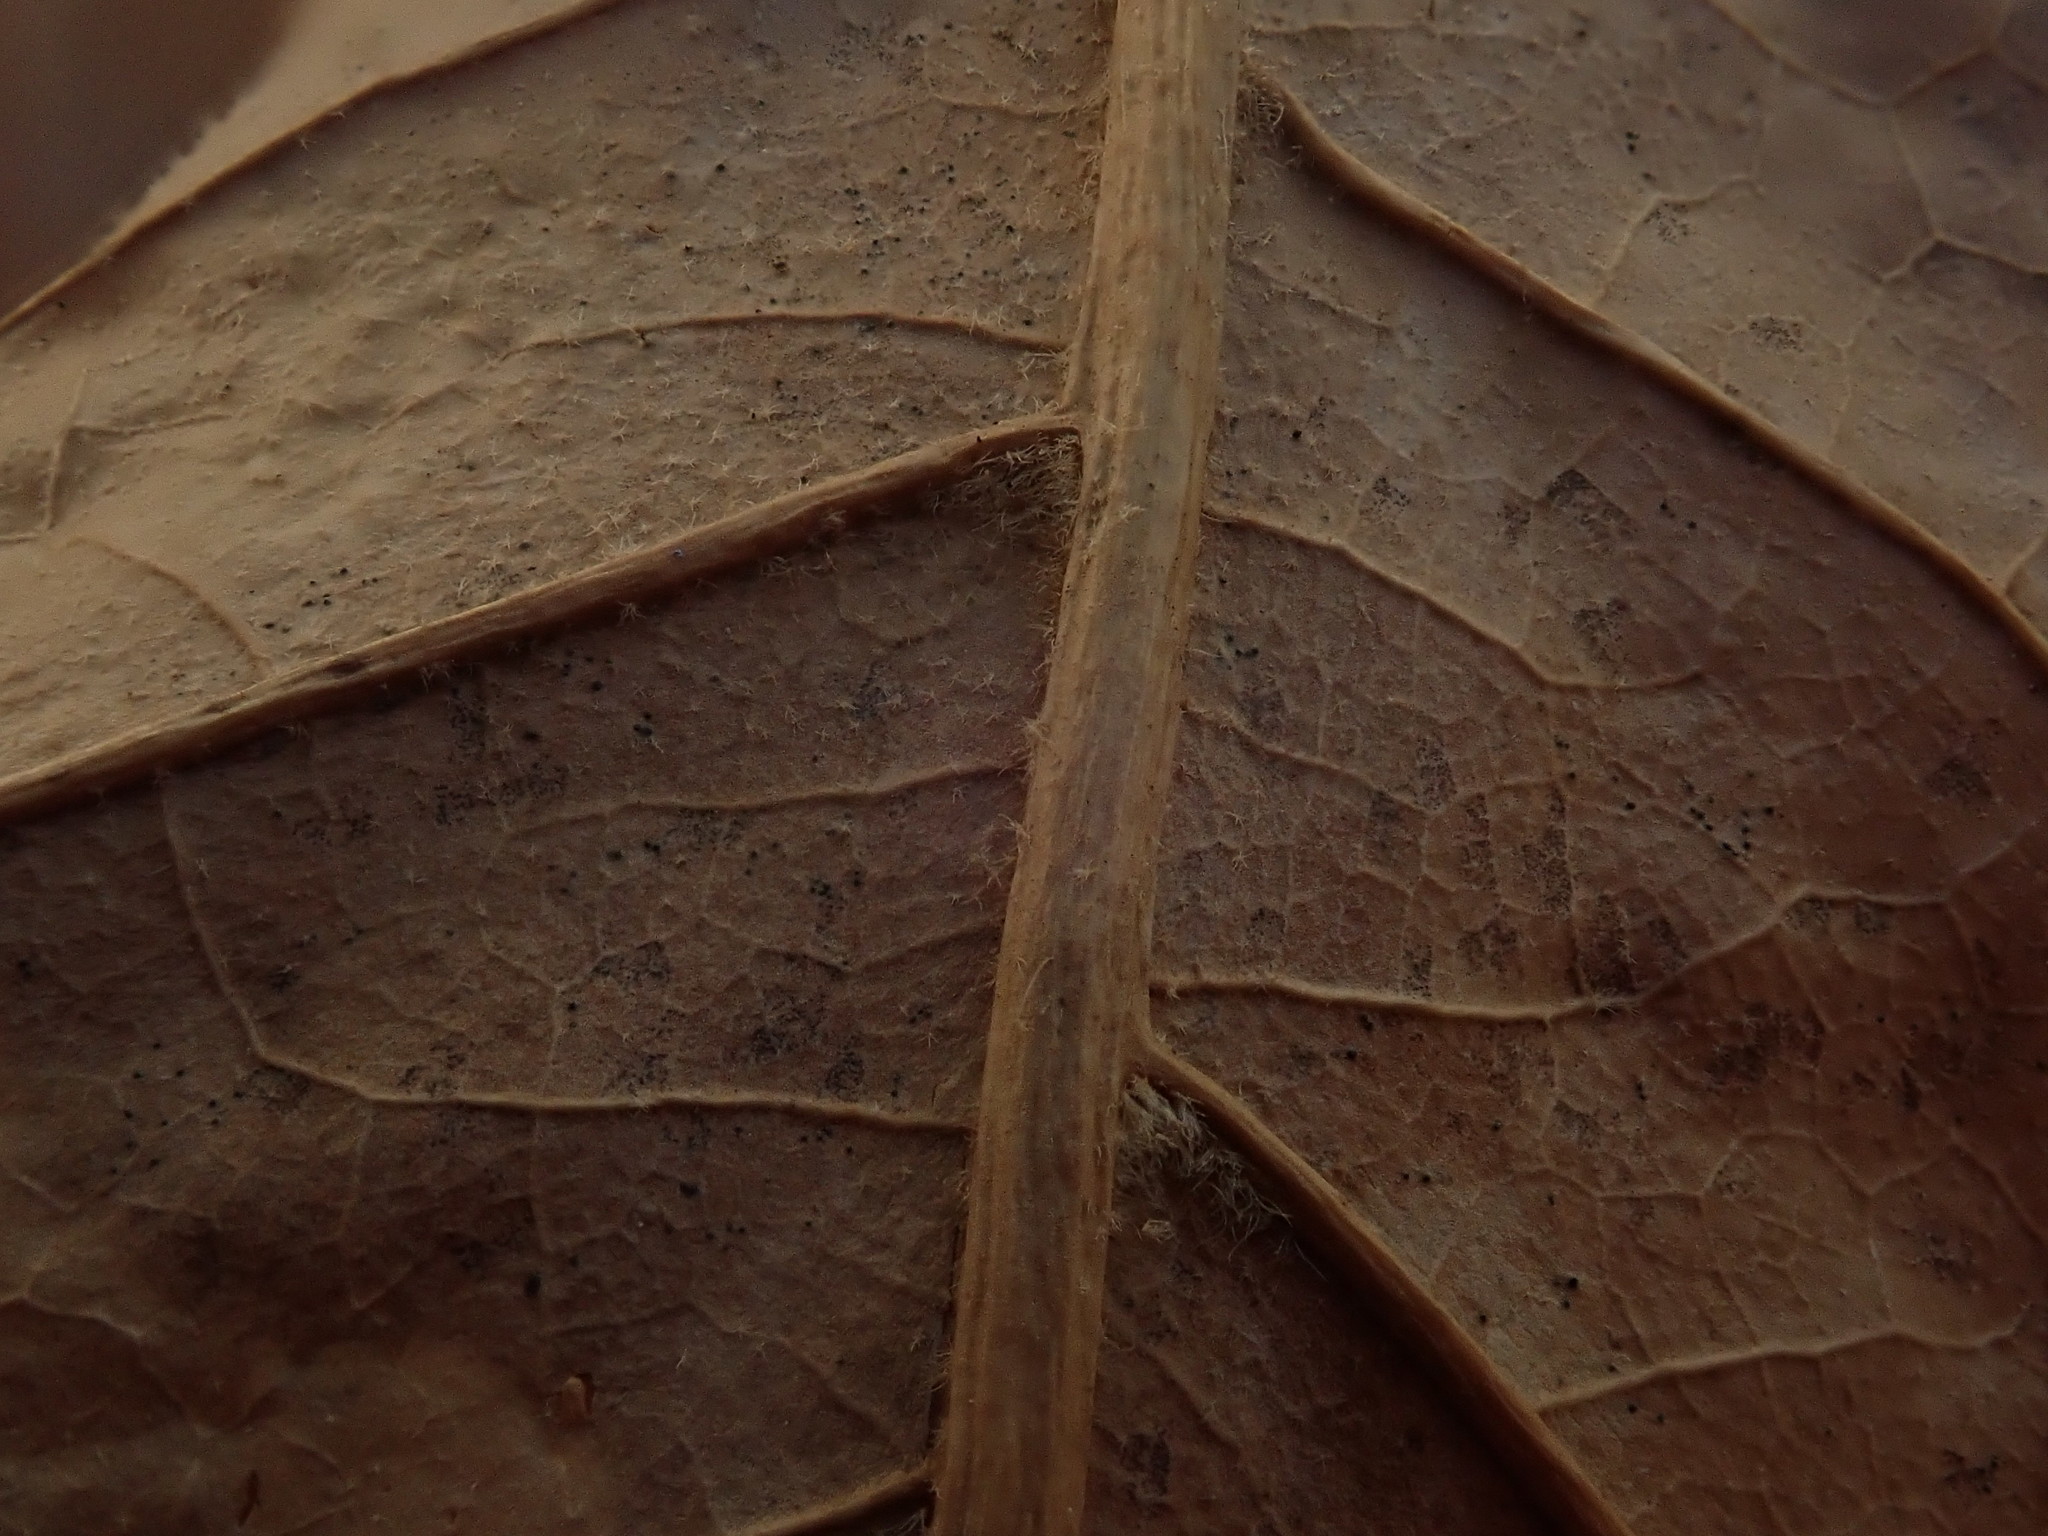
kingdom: Plantae
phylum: Tracheophyta
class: Magnoliopsida
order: Fagales
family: Fagaceae
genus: Quercus
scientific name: Quercus velutina
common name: Black oak
